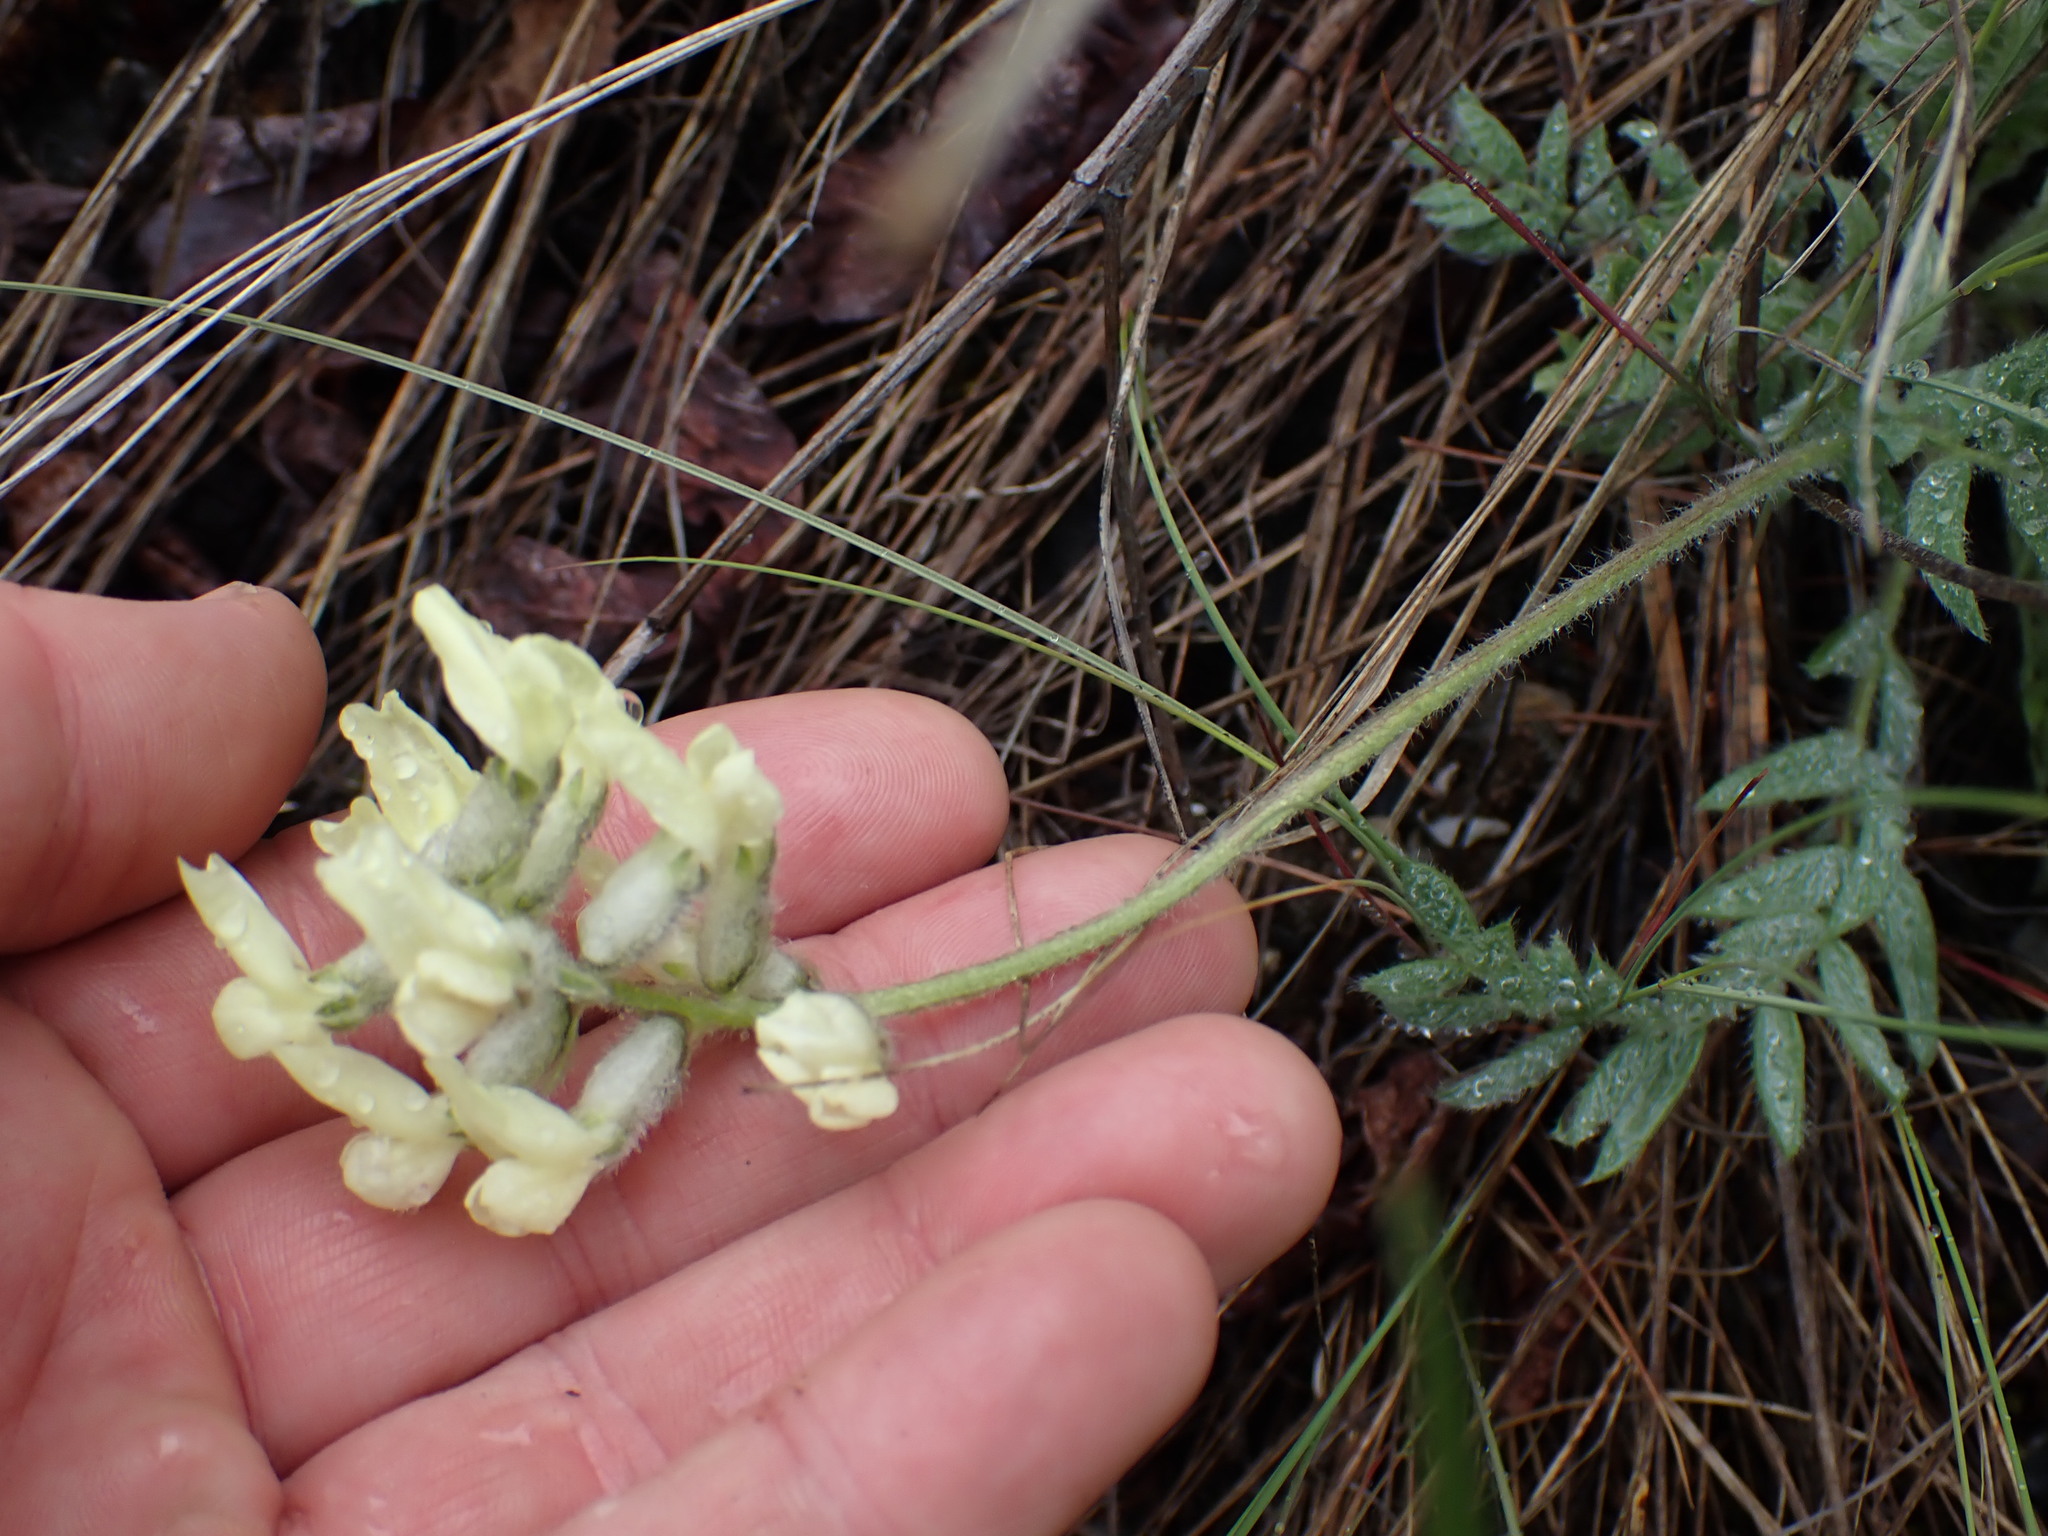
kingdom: Plantae
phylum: Tracheophyta
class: Magnoliopsida
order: Fabales
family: Fabaceae
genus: Oxytropis
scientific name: Oxytropis campestris
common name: Field locoweed
